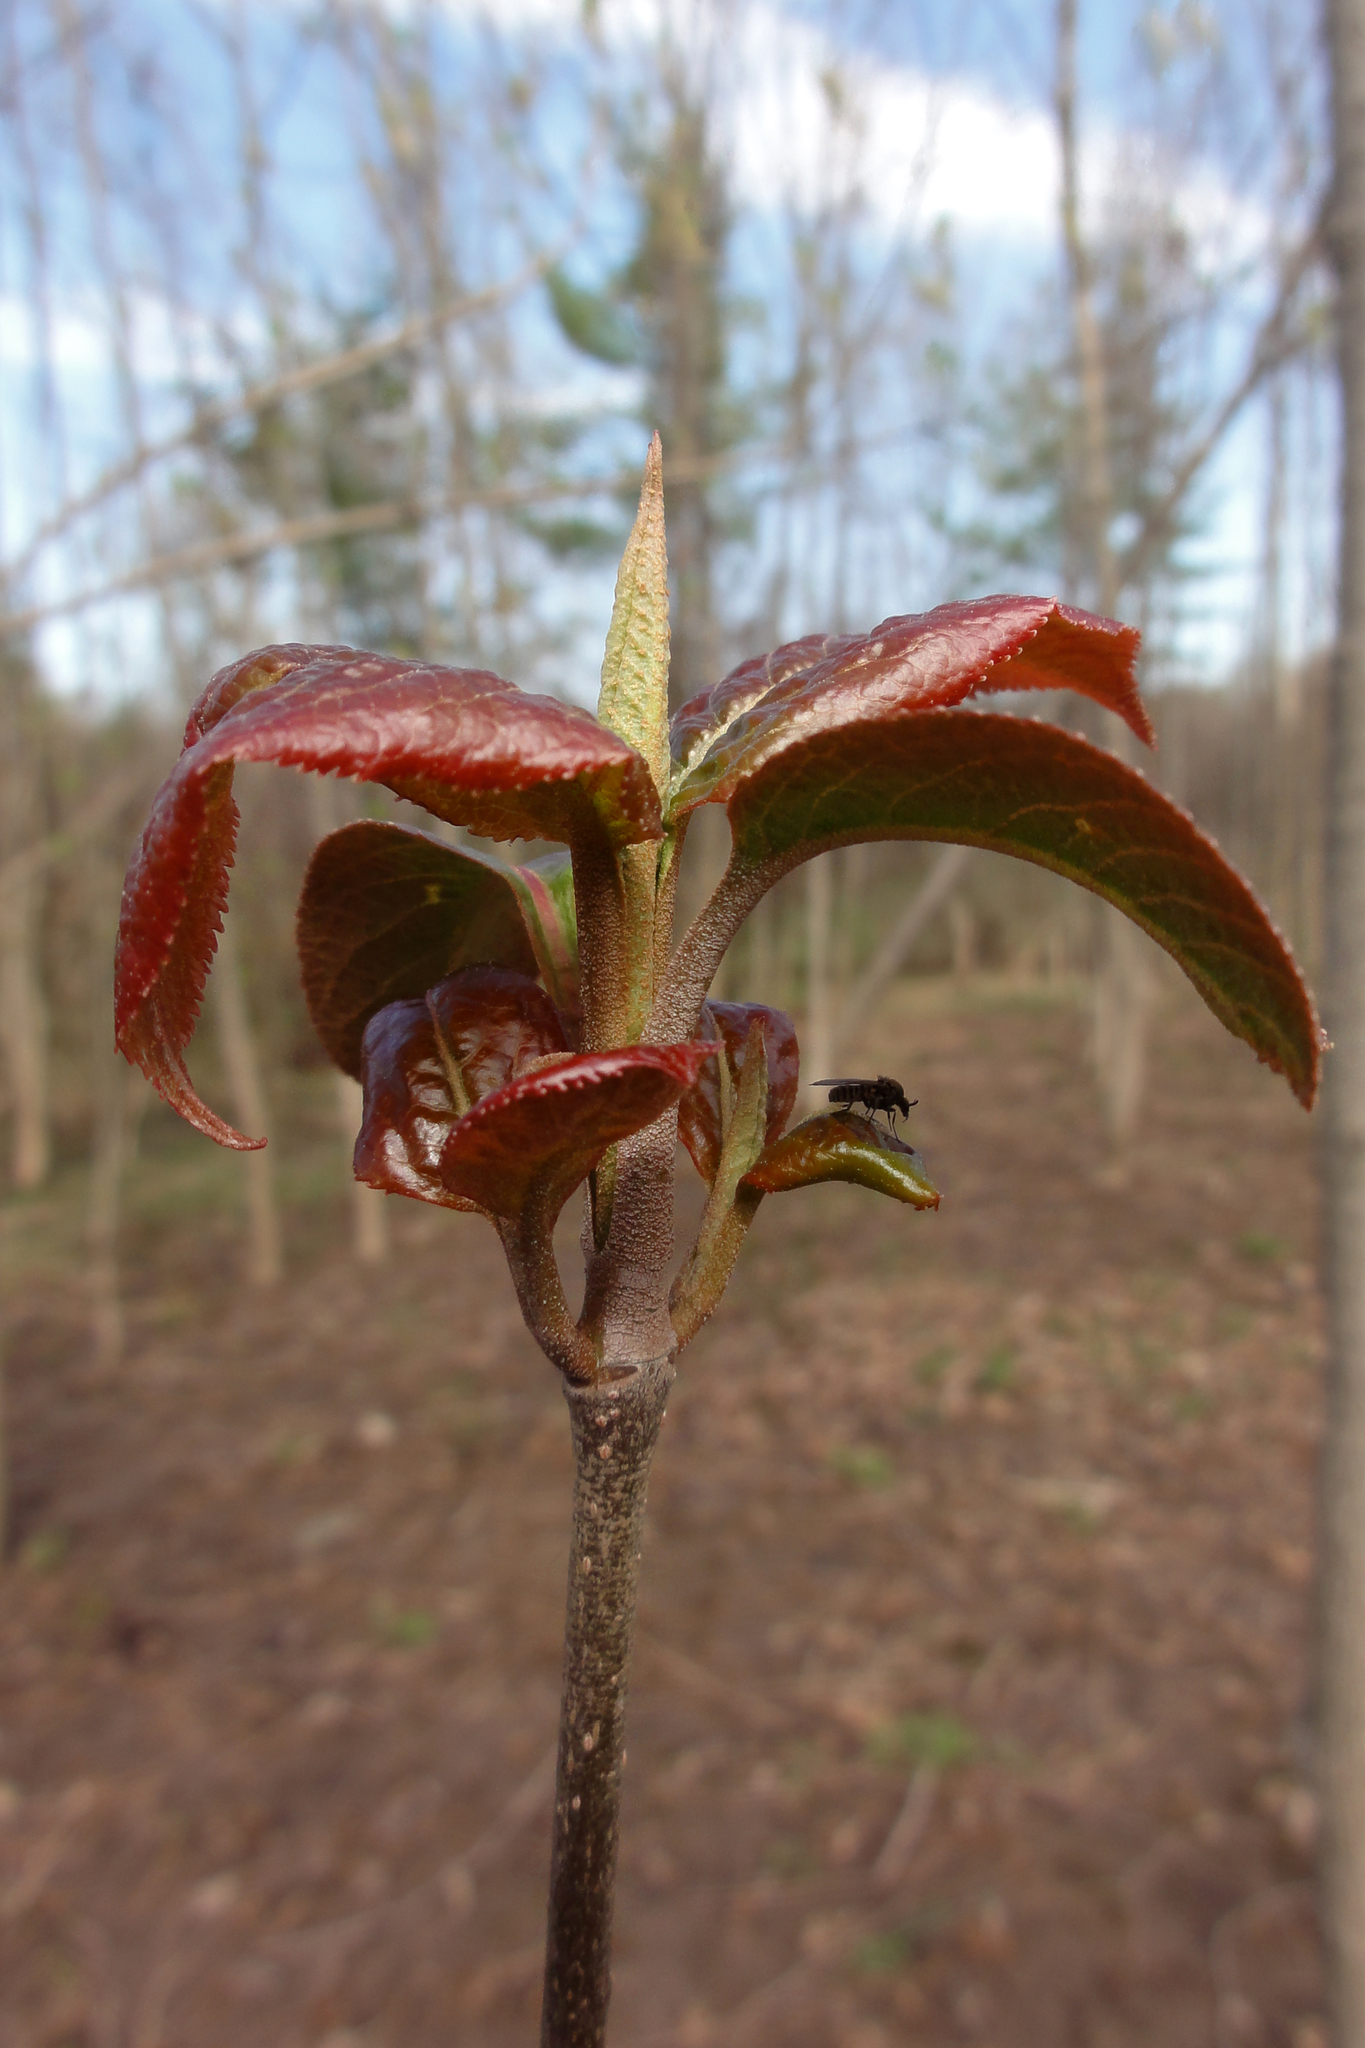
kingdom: Plantae
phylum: Tracheophyta
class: Magnoliopsida
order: Dipsacales
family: Viburnaceae
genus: Viburnum
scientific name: Viburnum lentago
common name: Black haw
